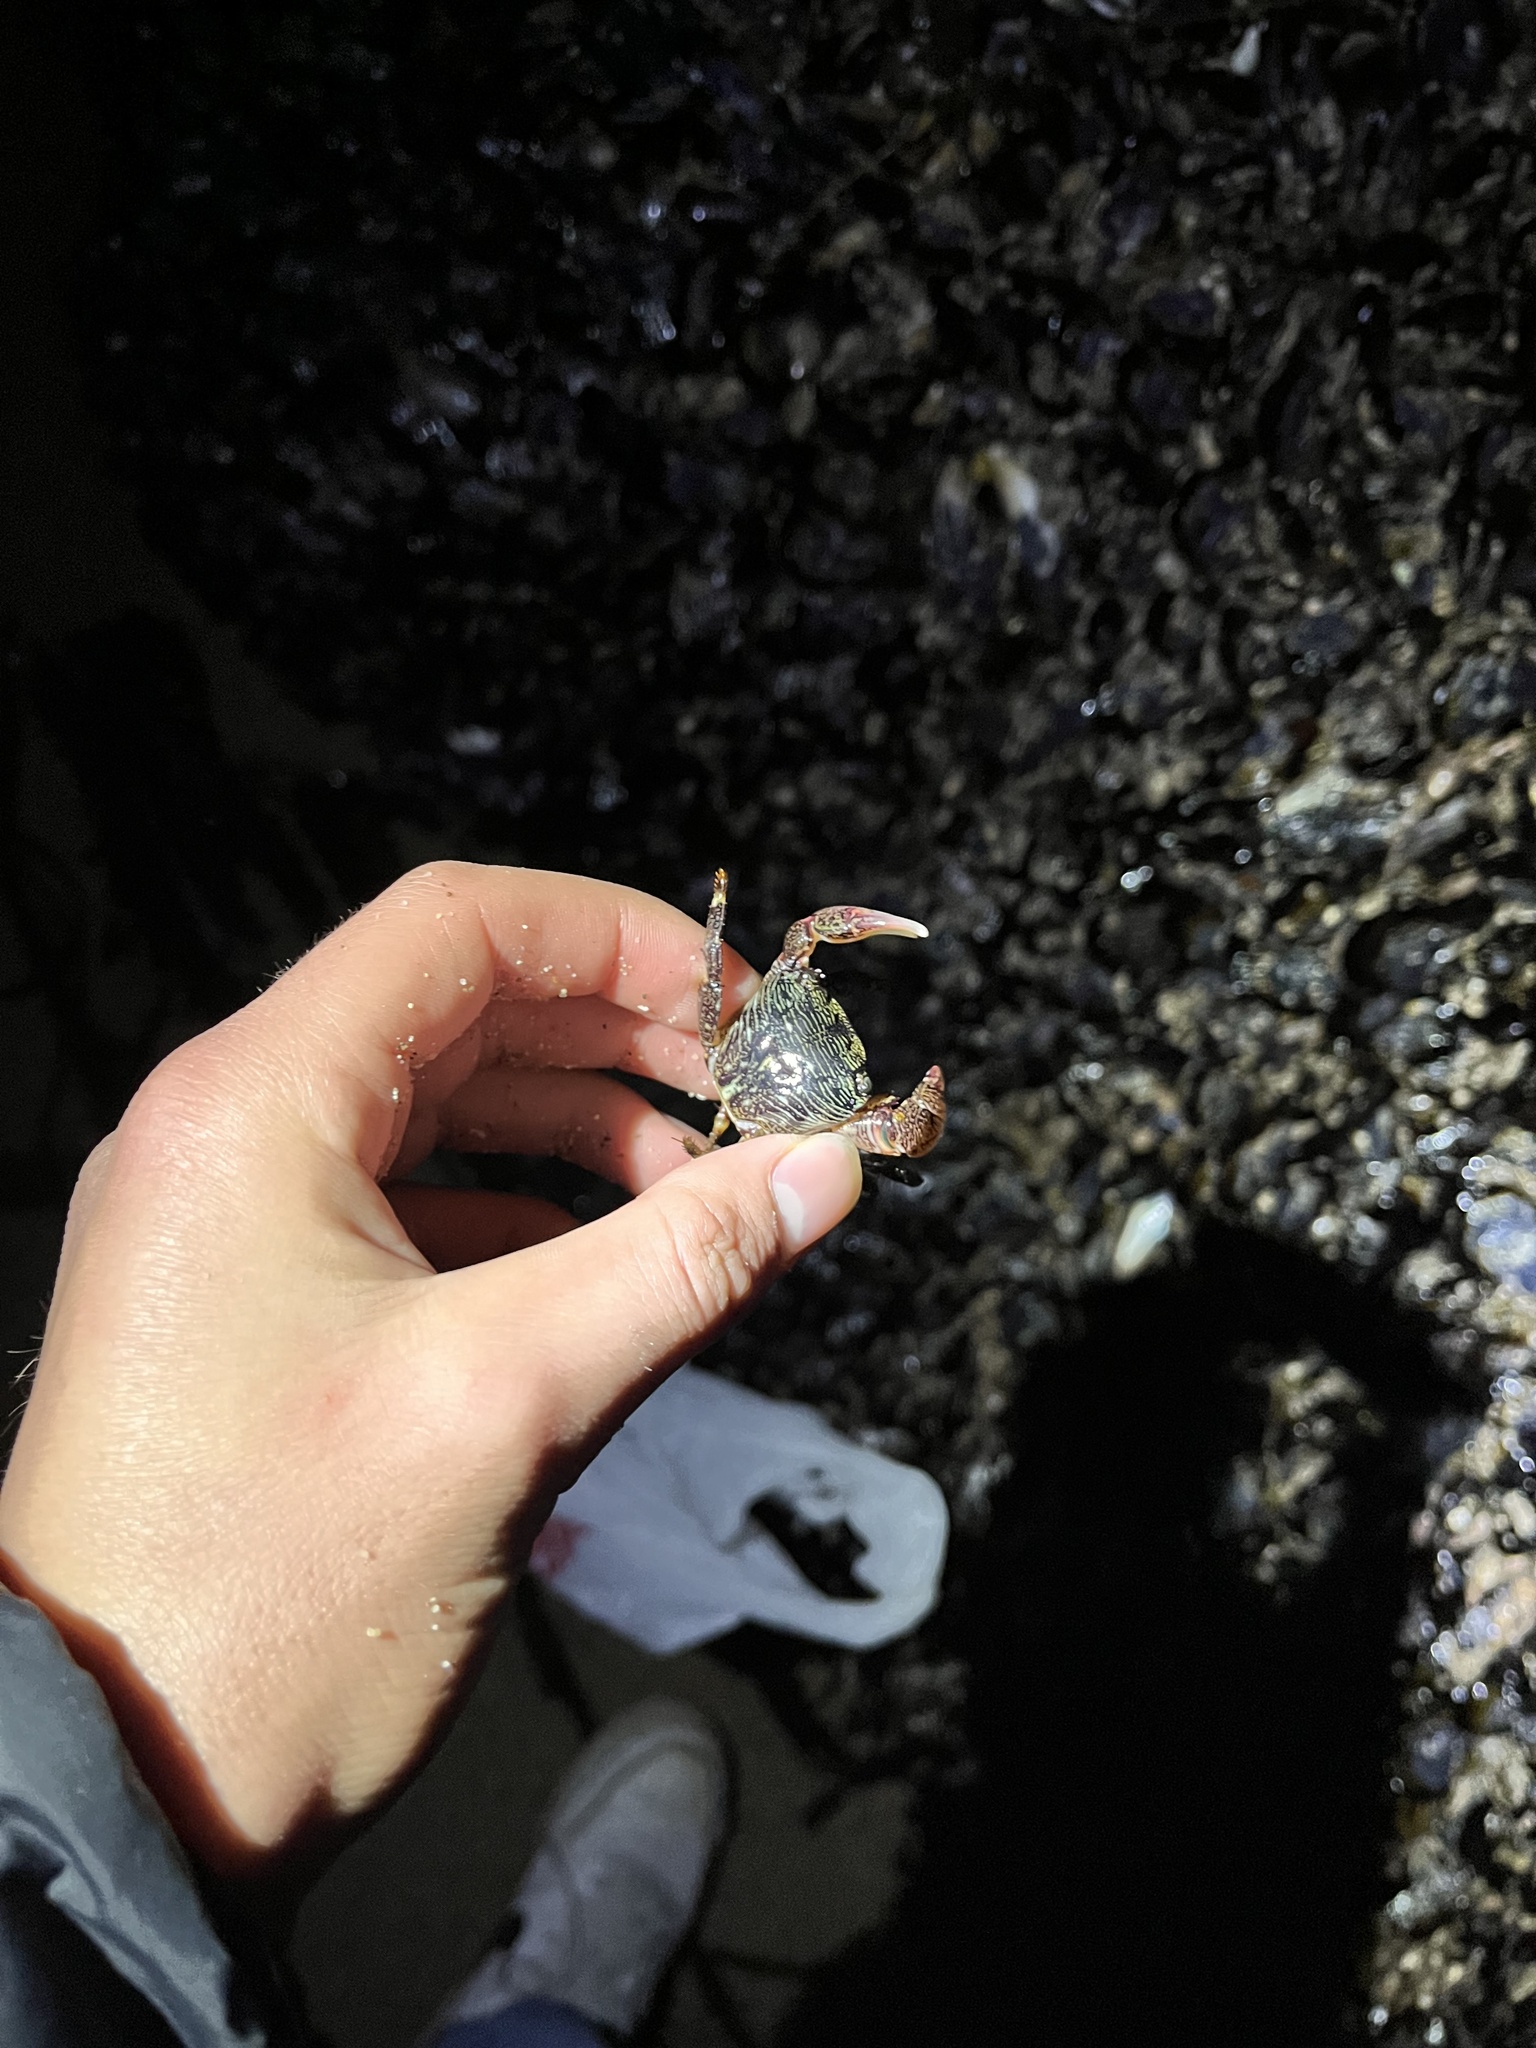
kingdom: Animalia
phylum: Arthropoda
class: Malacostraca
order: Decapoda
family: Grapsidae
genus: Pachygrapsus
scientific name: Pachygrapsus crassipes
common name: Striped shore crab
